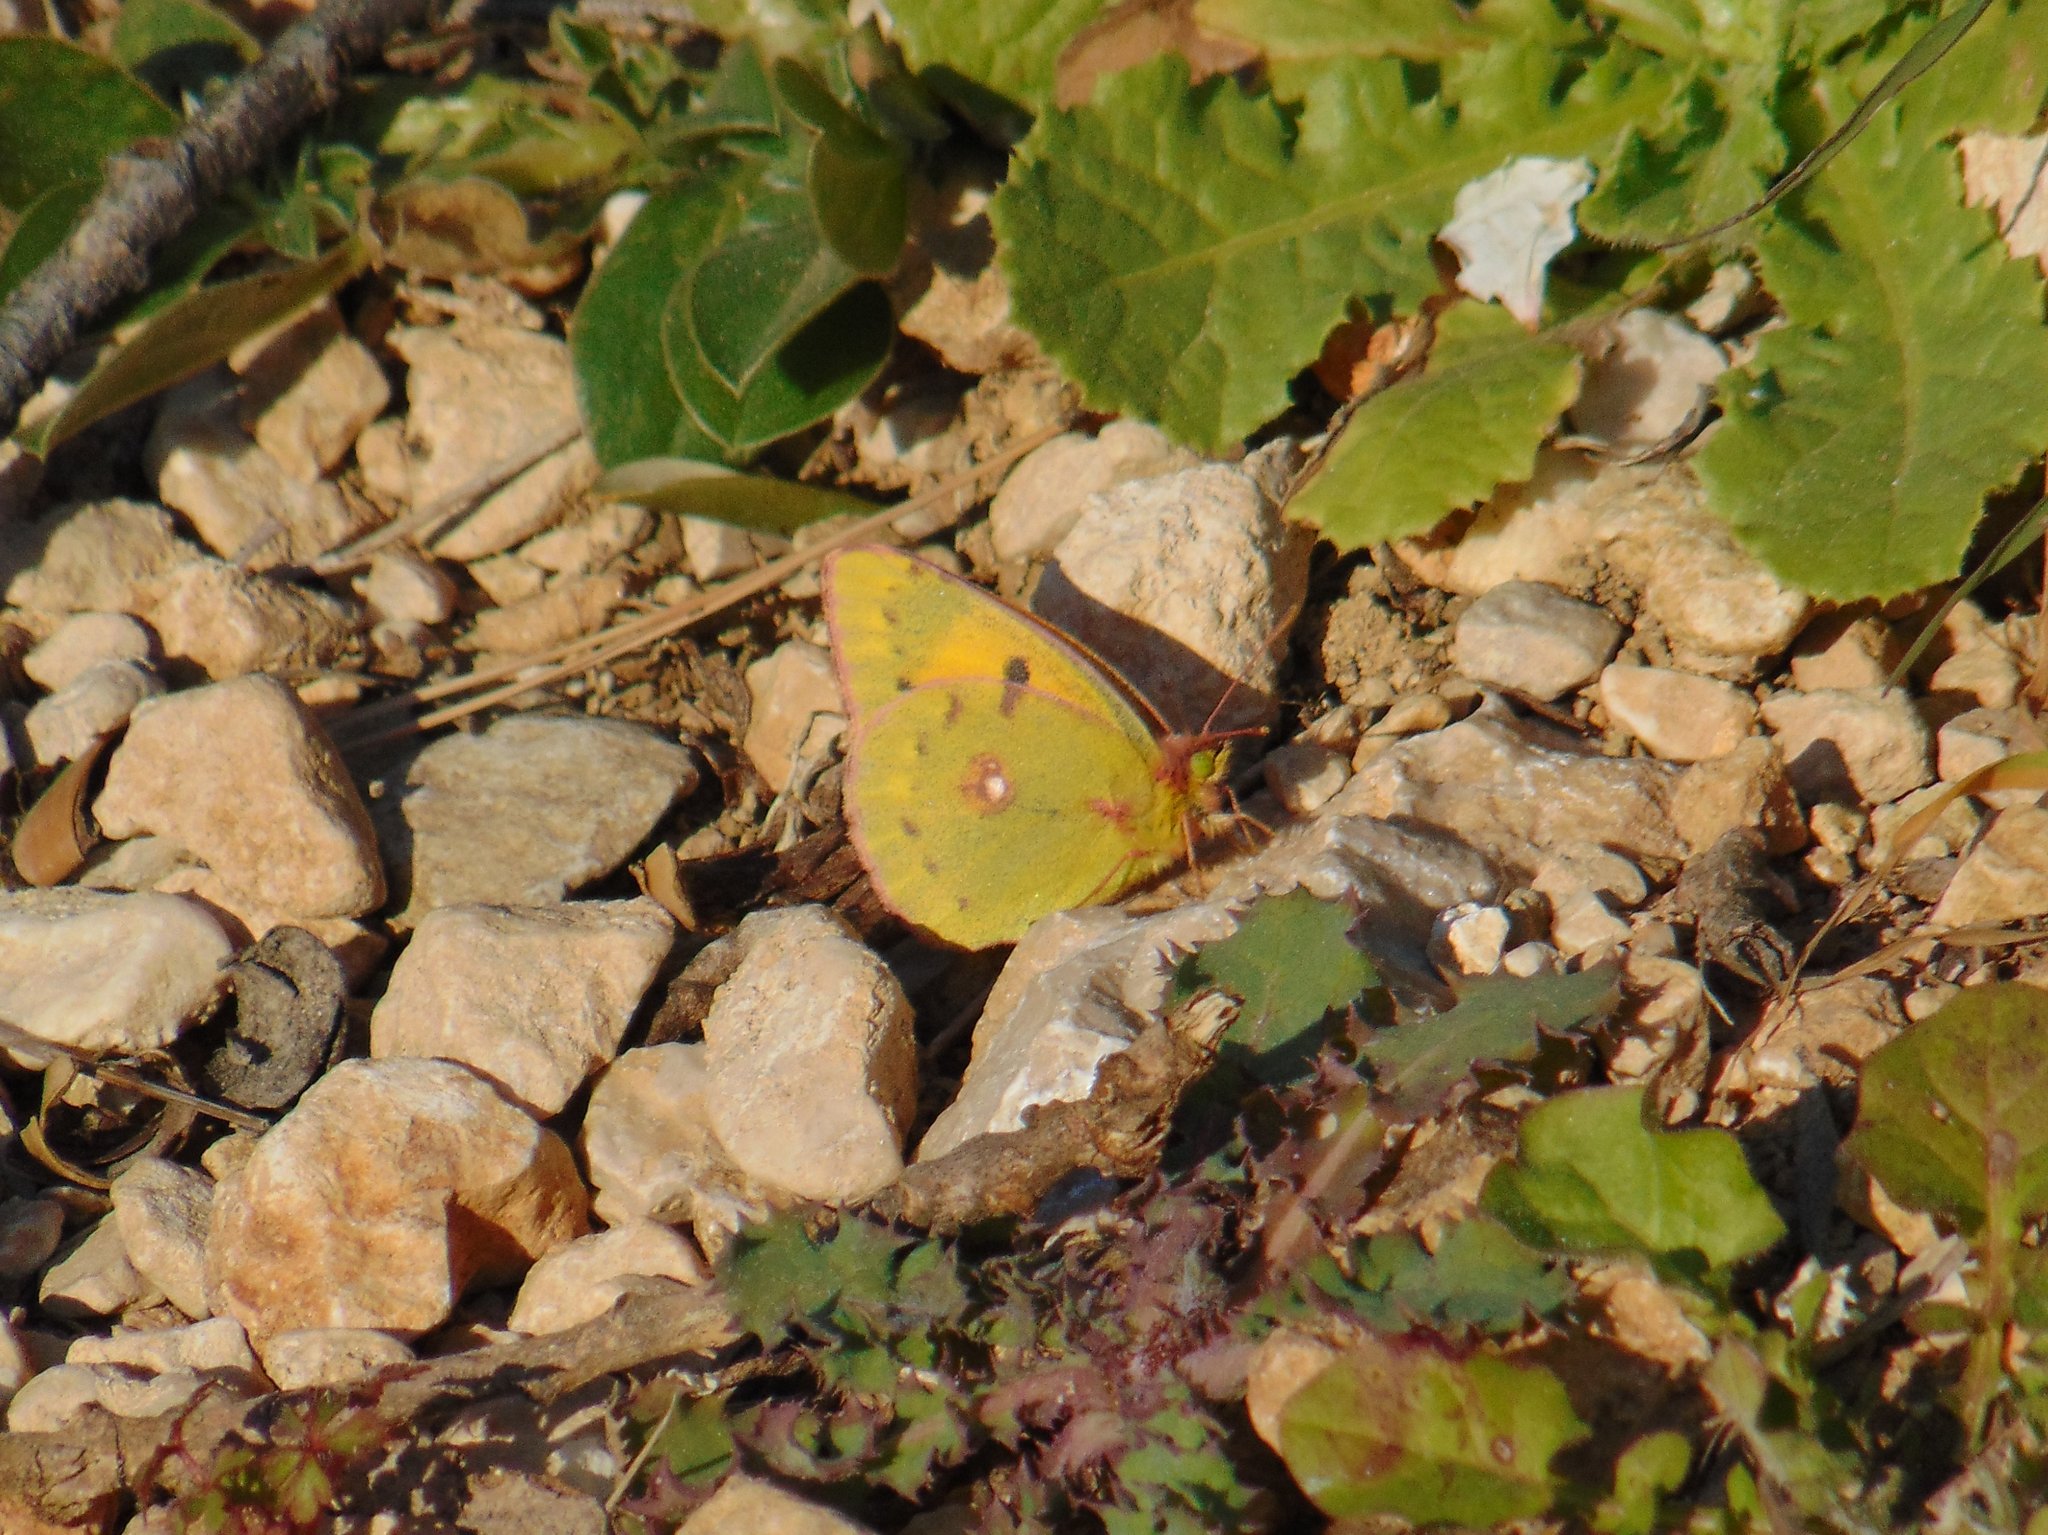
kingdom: Animalia
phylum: Arthropoda
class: Insecta
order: Lepidoptera
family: Pieridae
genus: Colias
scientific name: Colias croceus
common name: Clouded yellow
